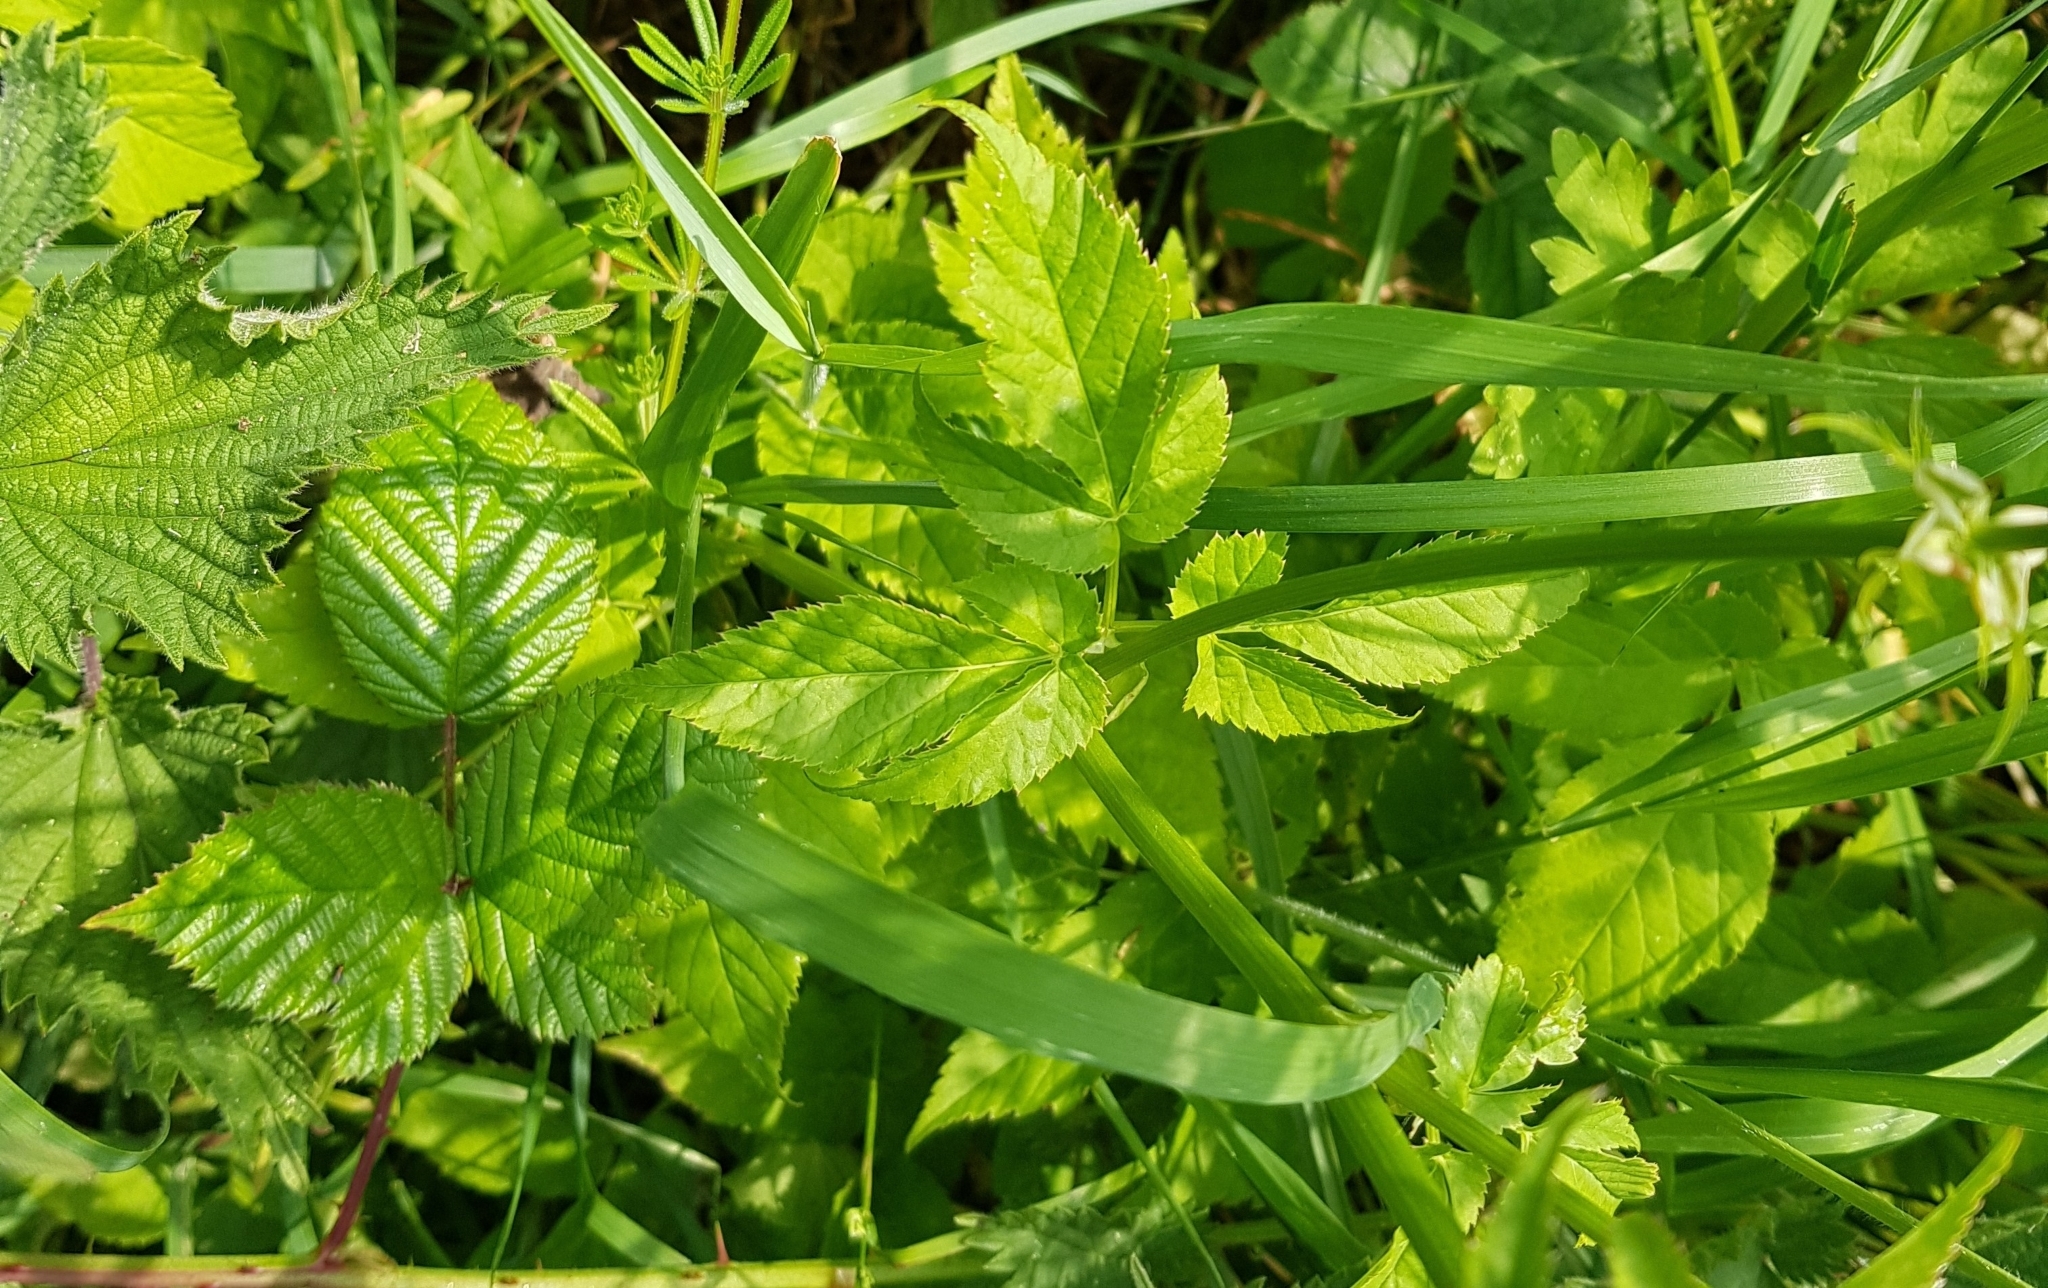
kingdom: Plantae
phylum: Tracheophyta
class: Magnoliopsida
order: Apiales
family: Apiaceae
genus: Aegopodium
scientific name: Aegopodium podagraria
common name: Ground-elder
